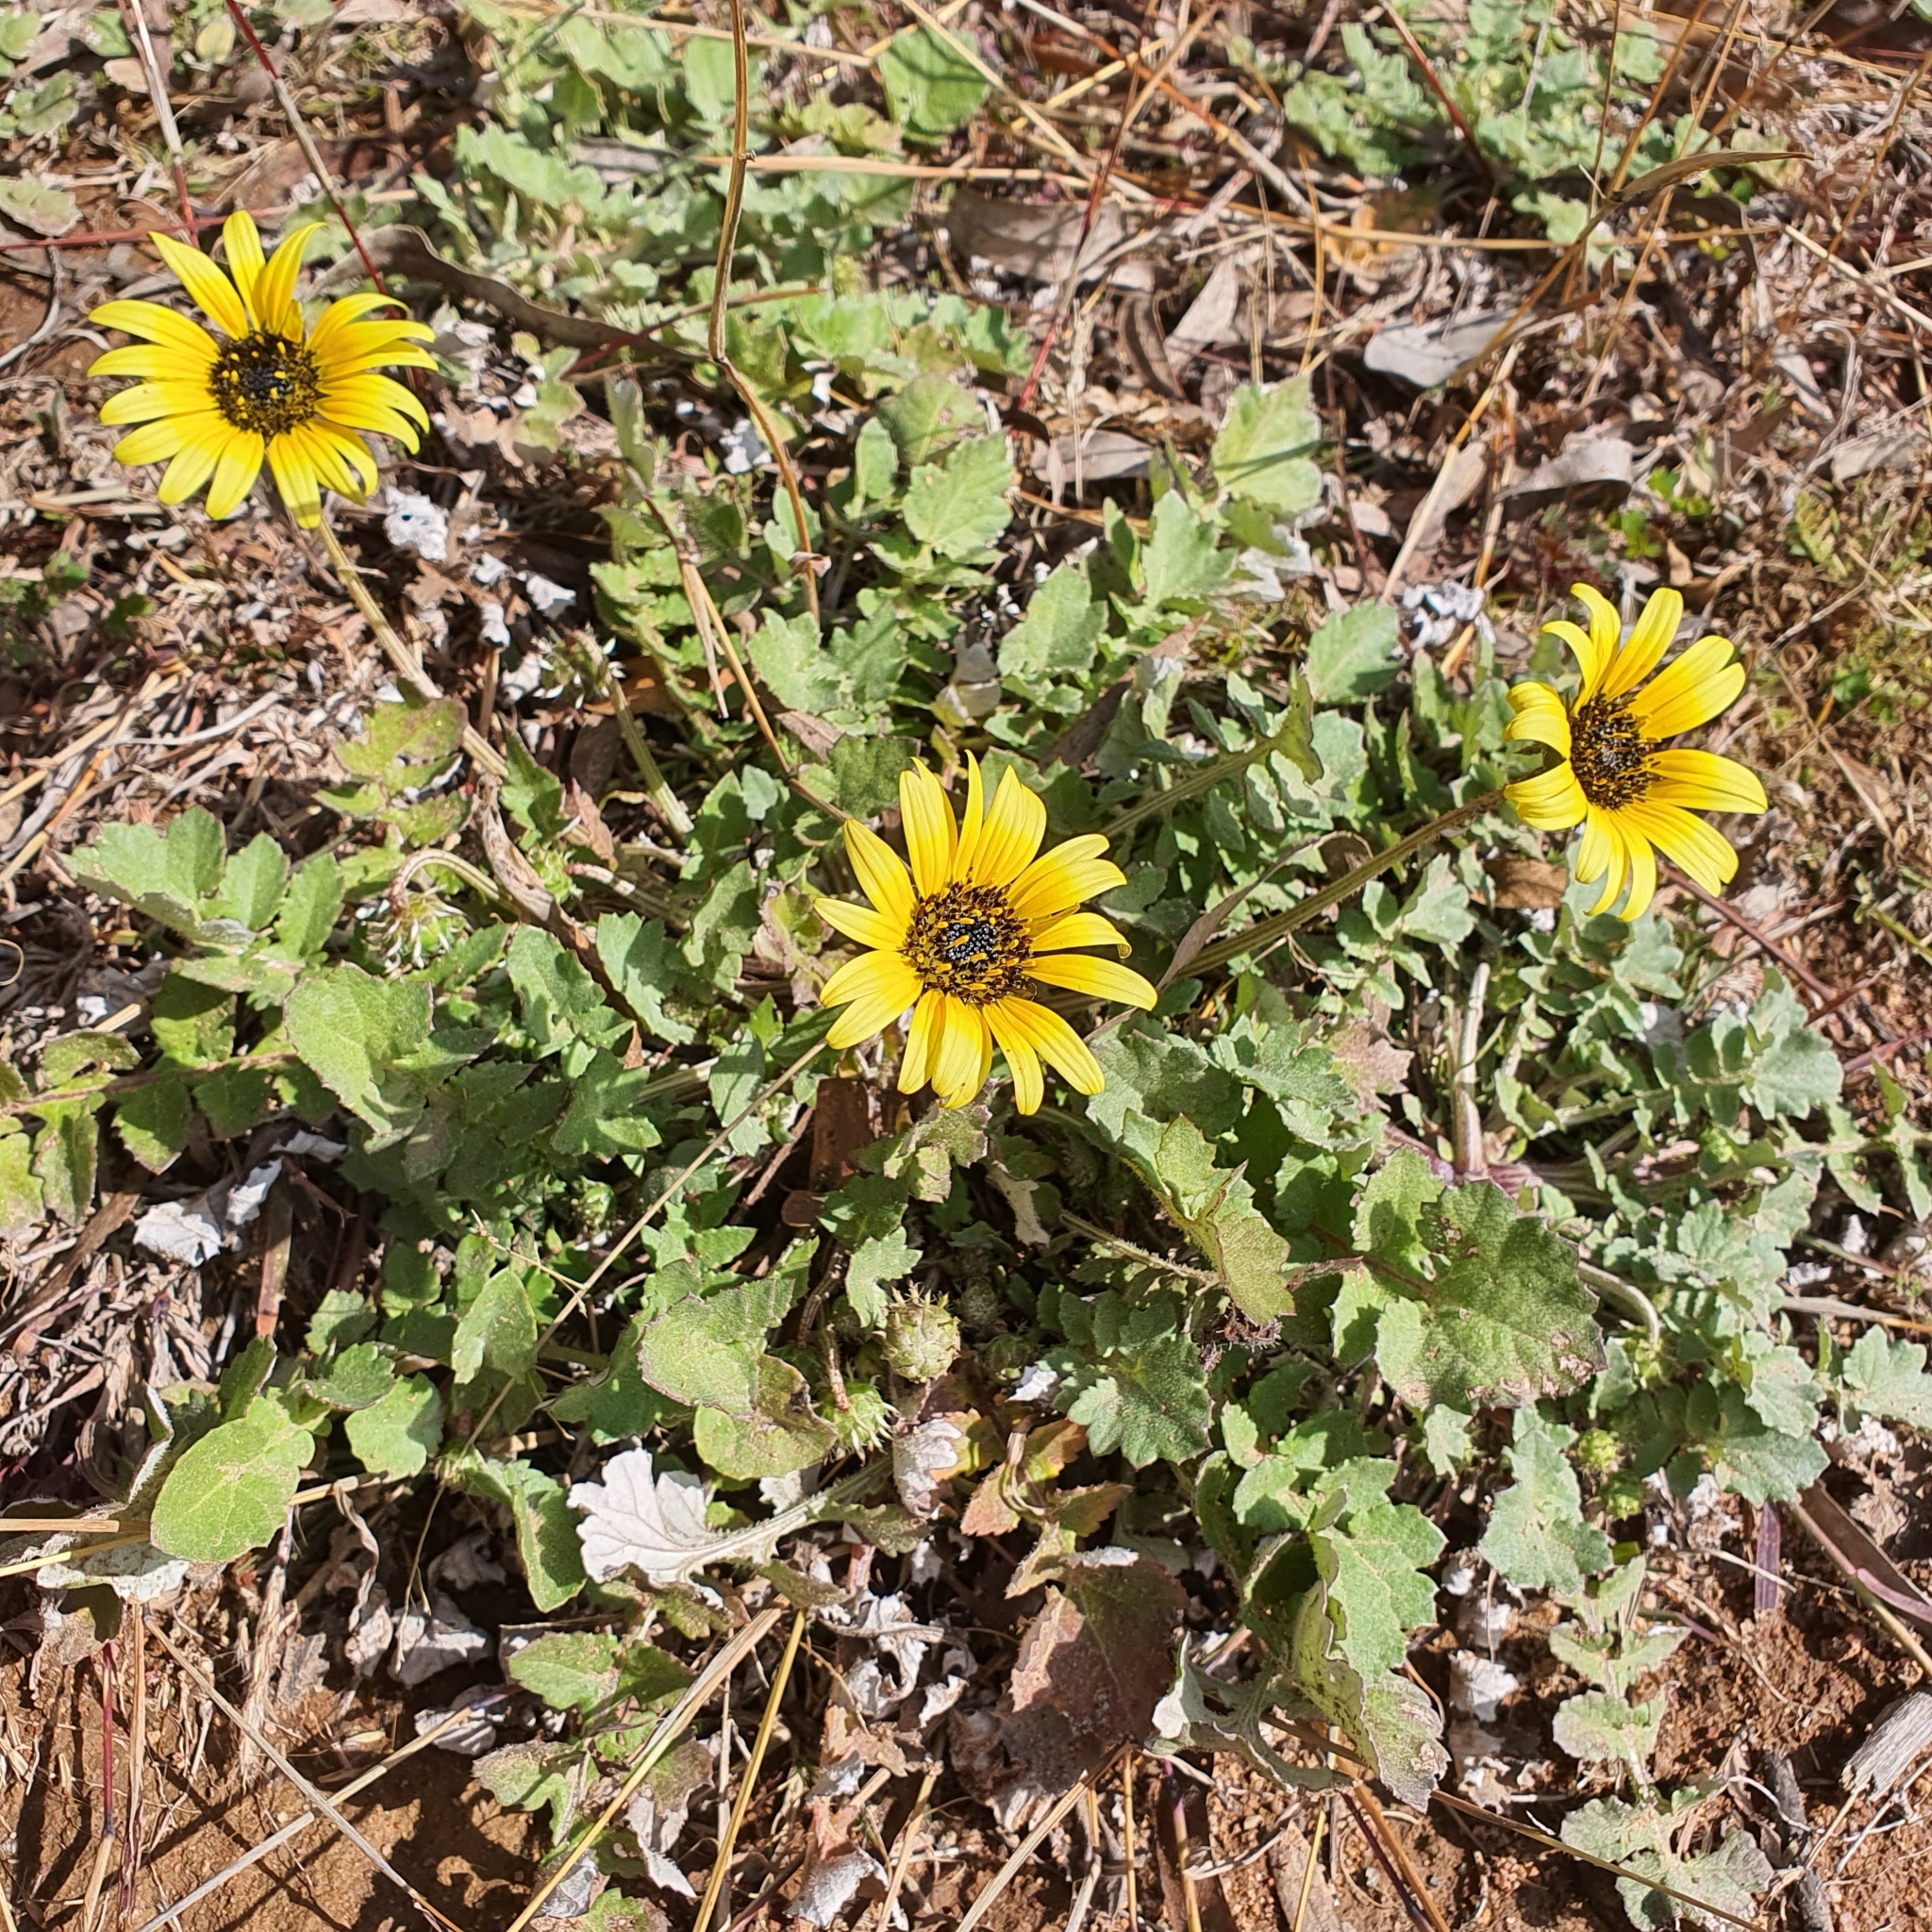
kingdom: Plantae
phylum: Tracheophyta
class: Magnoliopsida
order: Asterales
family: Asteraceae
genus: Arctotheca
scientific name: Arctotheca calendula
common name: Capeweed
